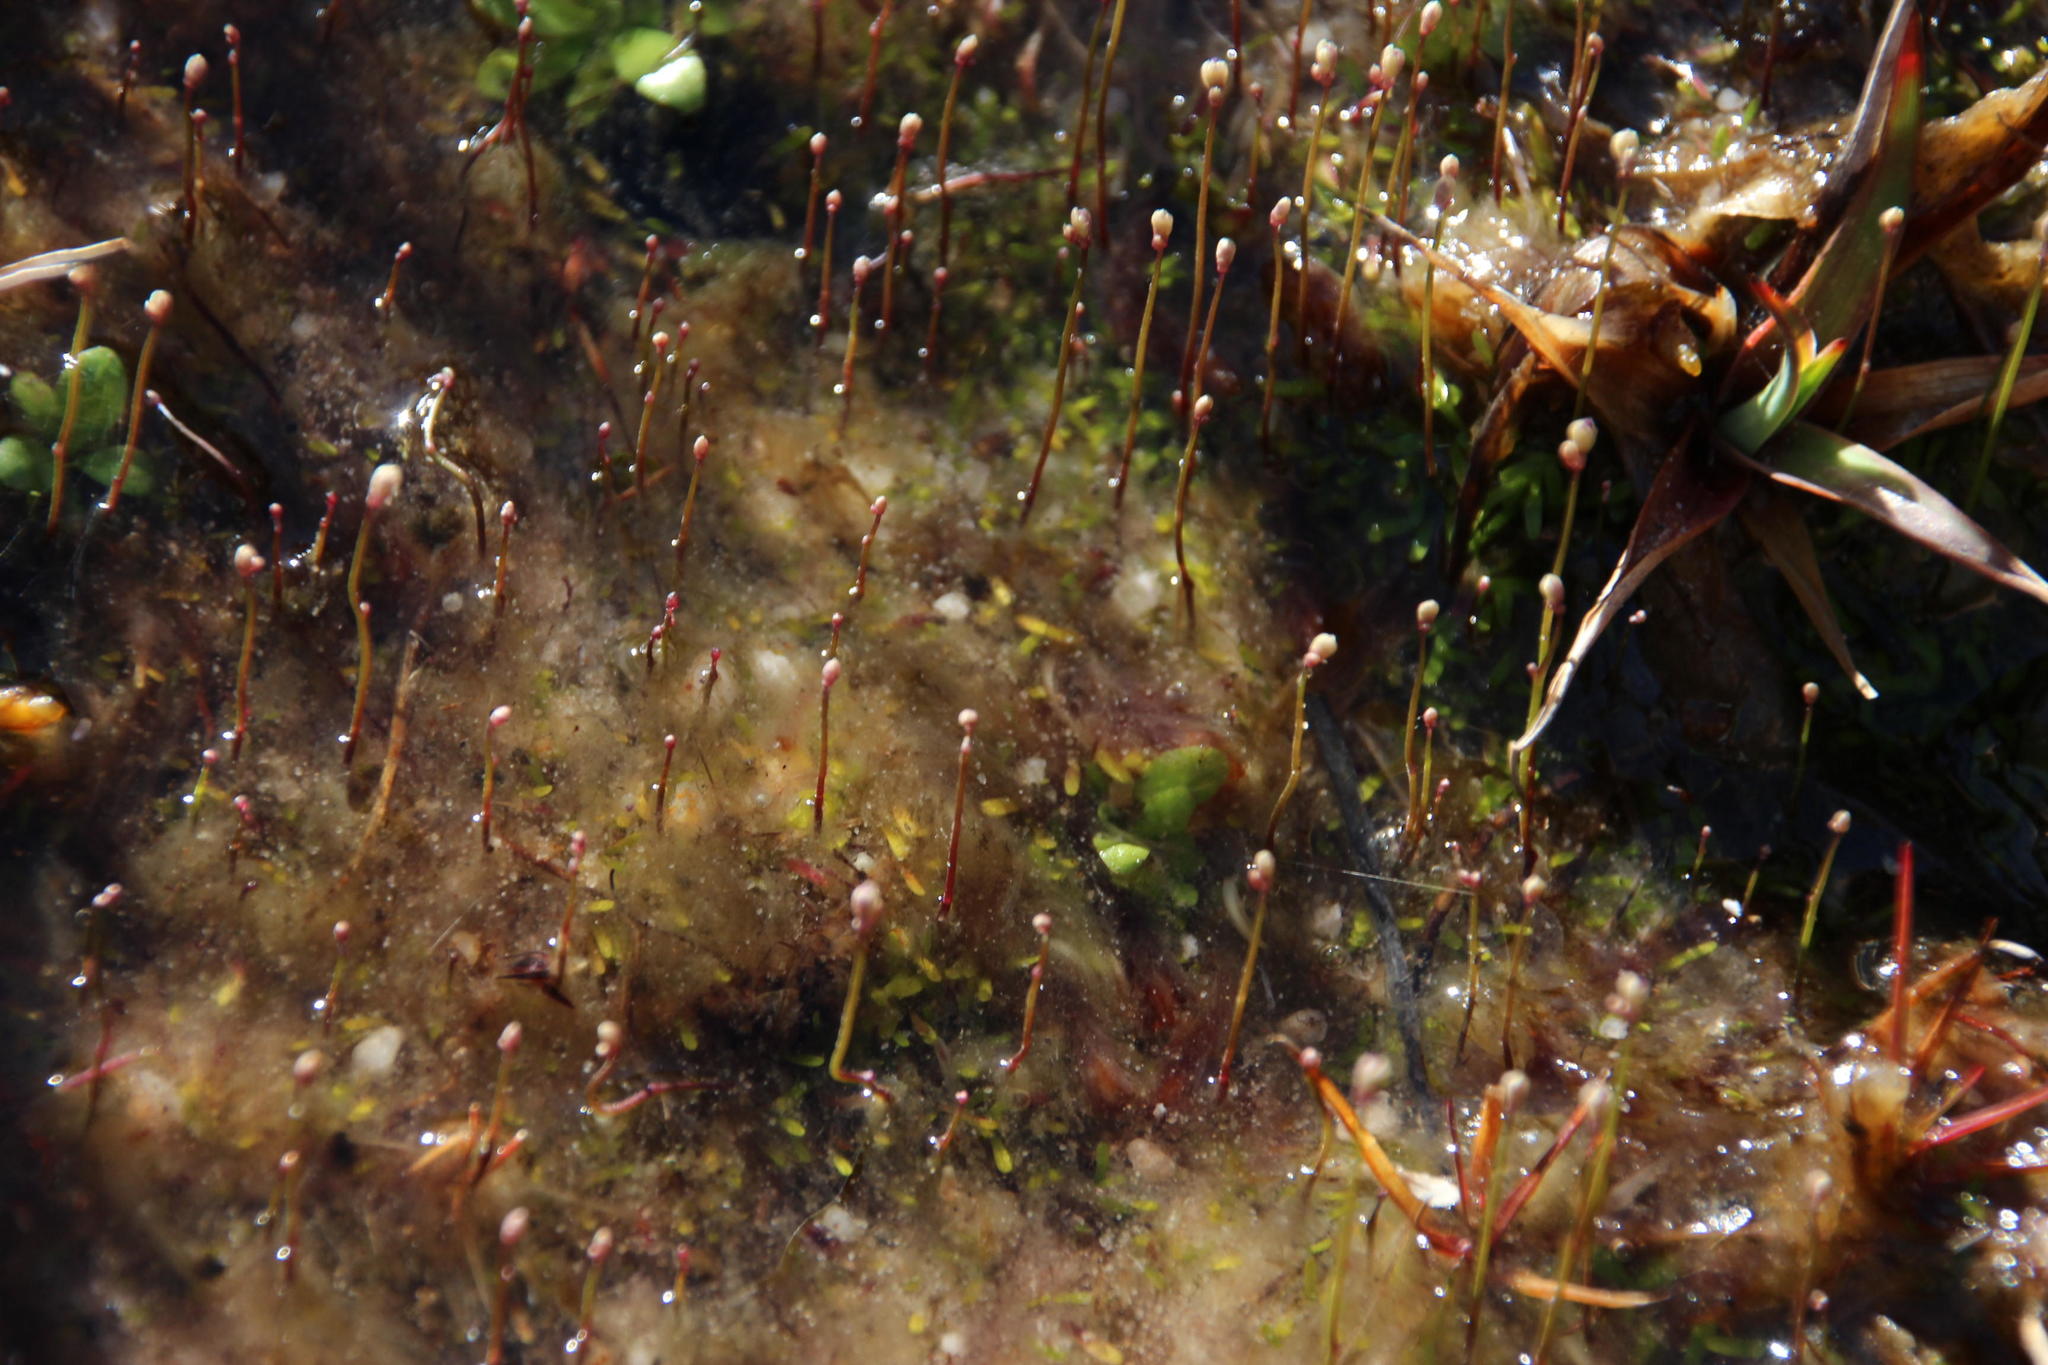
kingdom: Plantae
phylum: Tracheophyta
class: Magnoliopsida
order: Lamiales
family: Lentibulariaceae
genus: Utricularia
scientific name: Utricularia bisquamata
